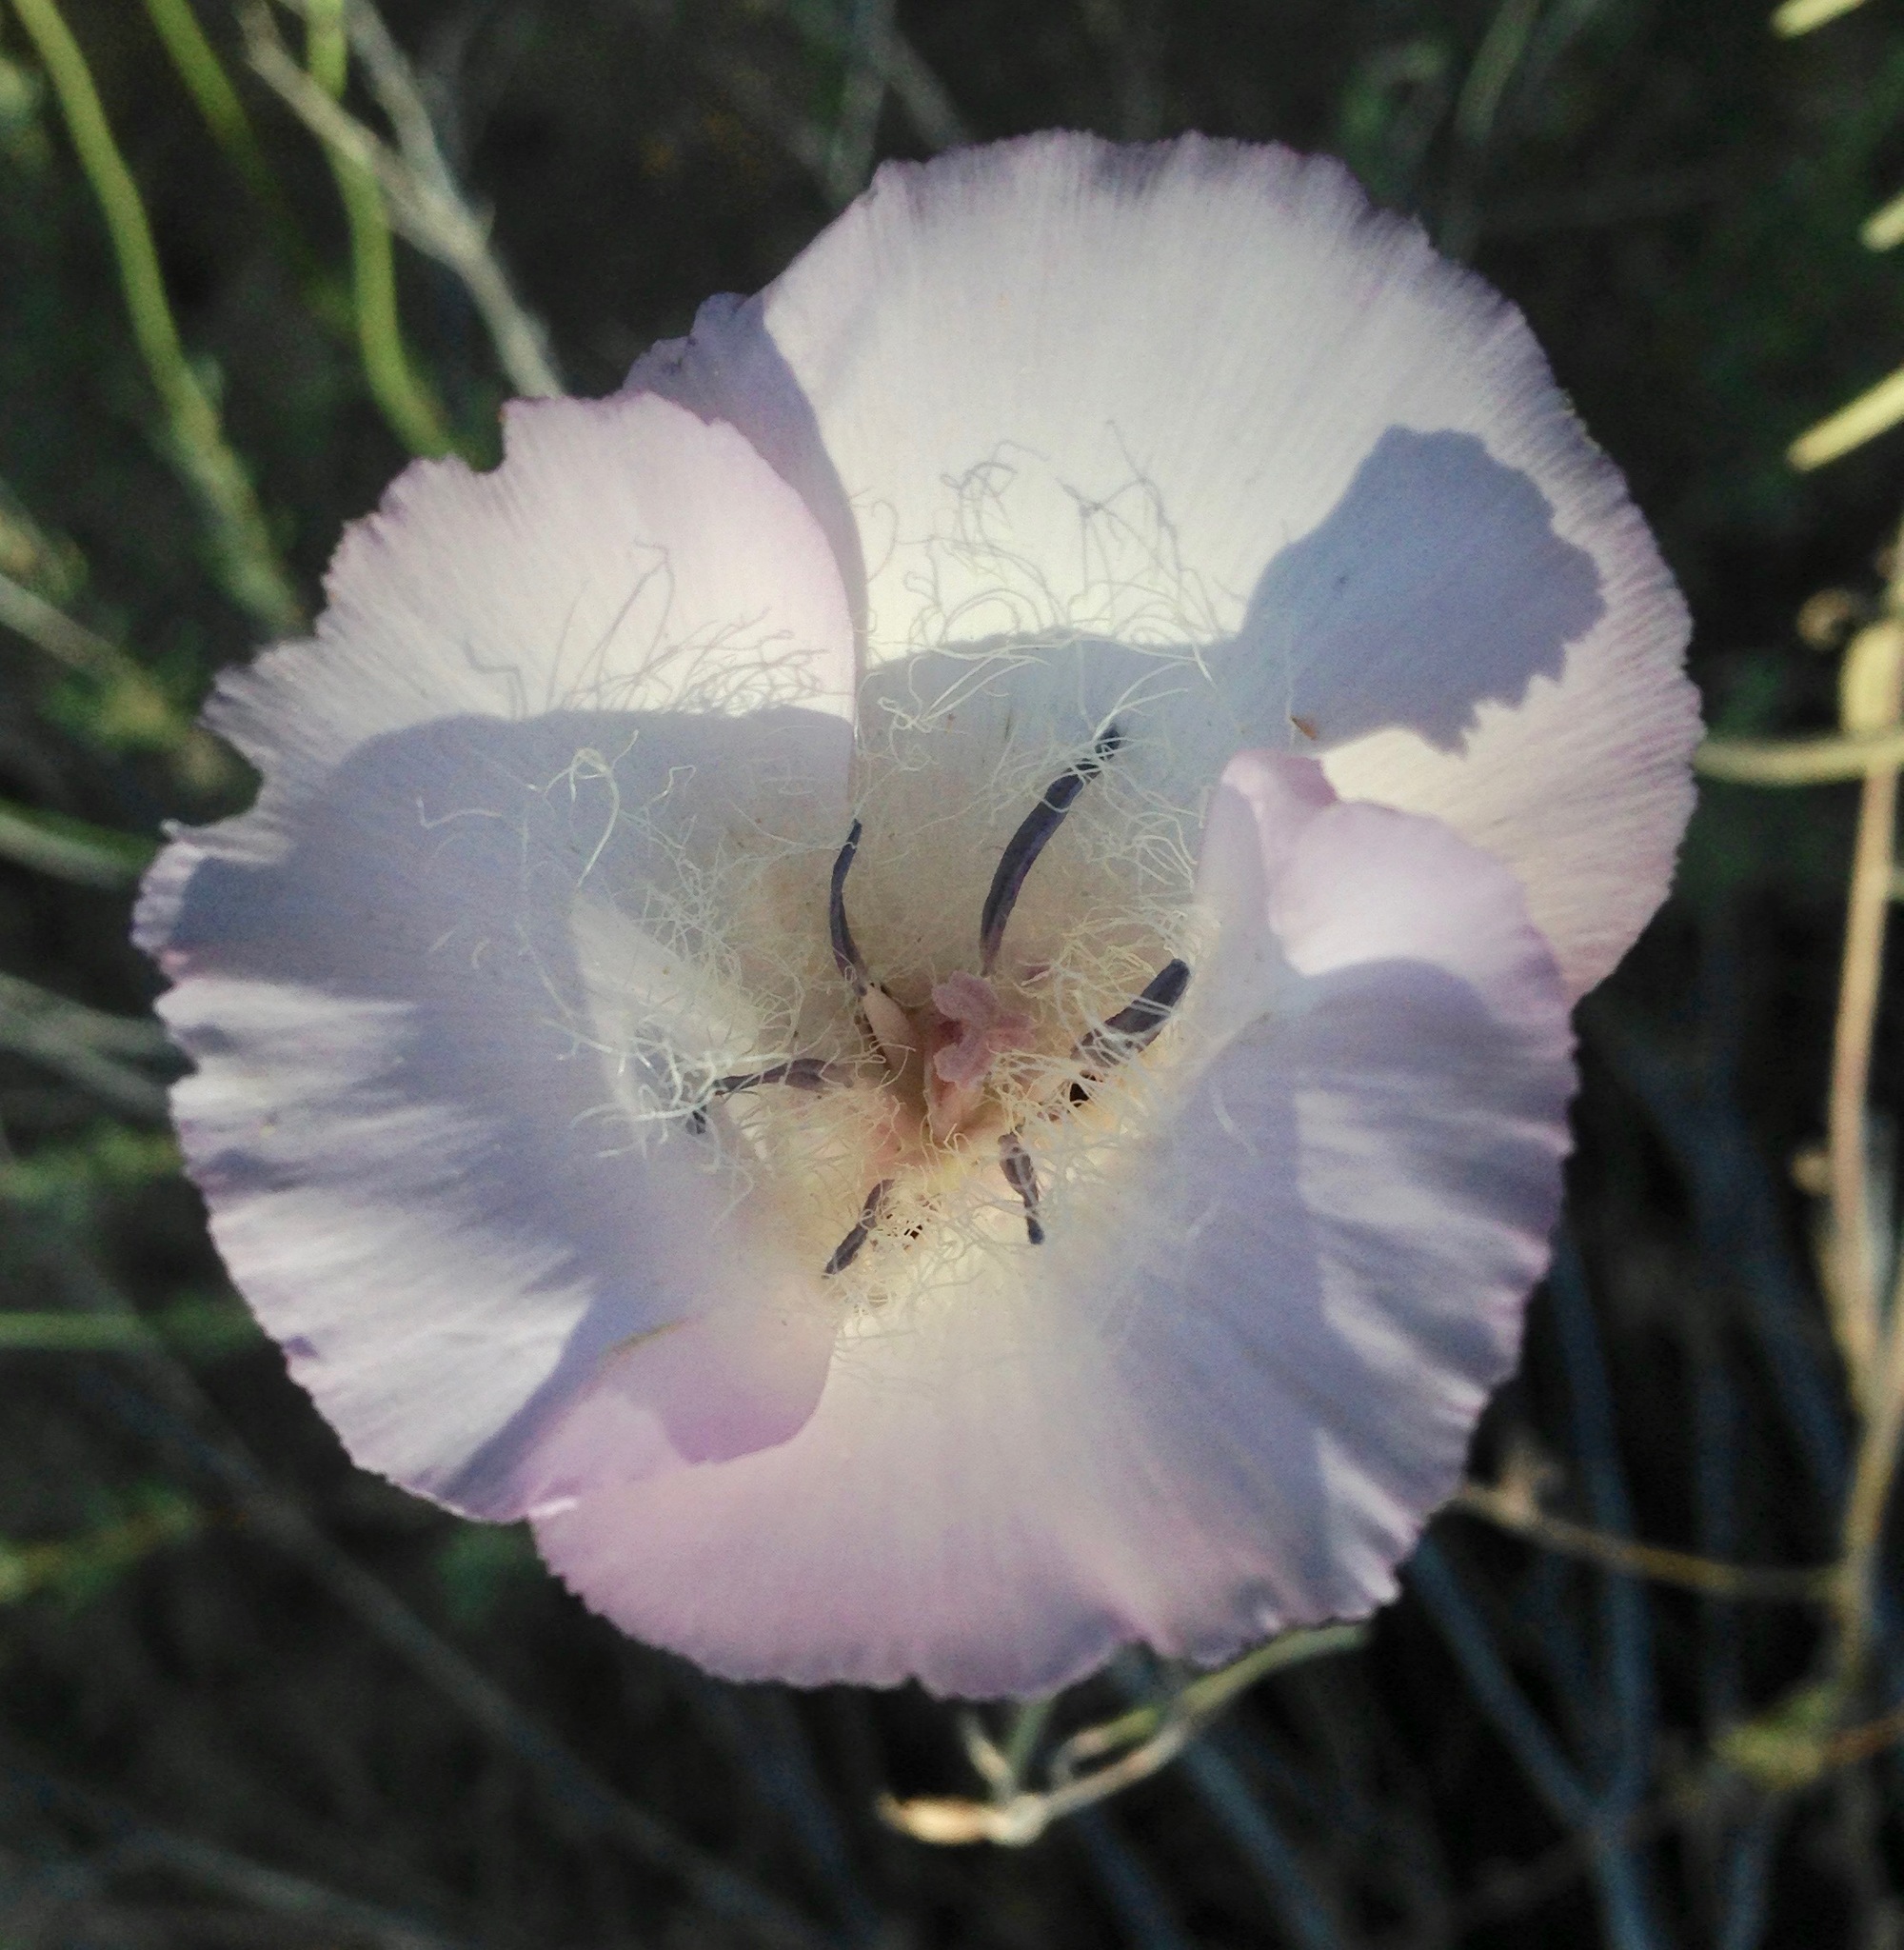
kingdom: Plantae
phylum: Tracheophyta
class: Liliopsida
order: Liliales
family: Liliaceae
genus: Calochortus
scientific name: Calochortus splendens
